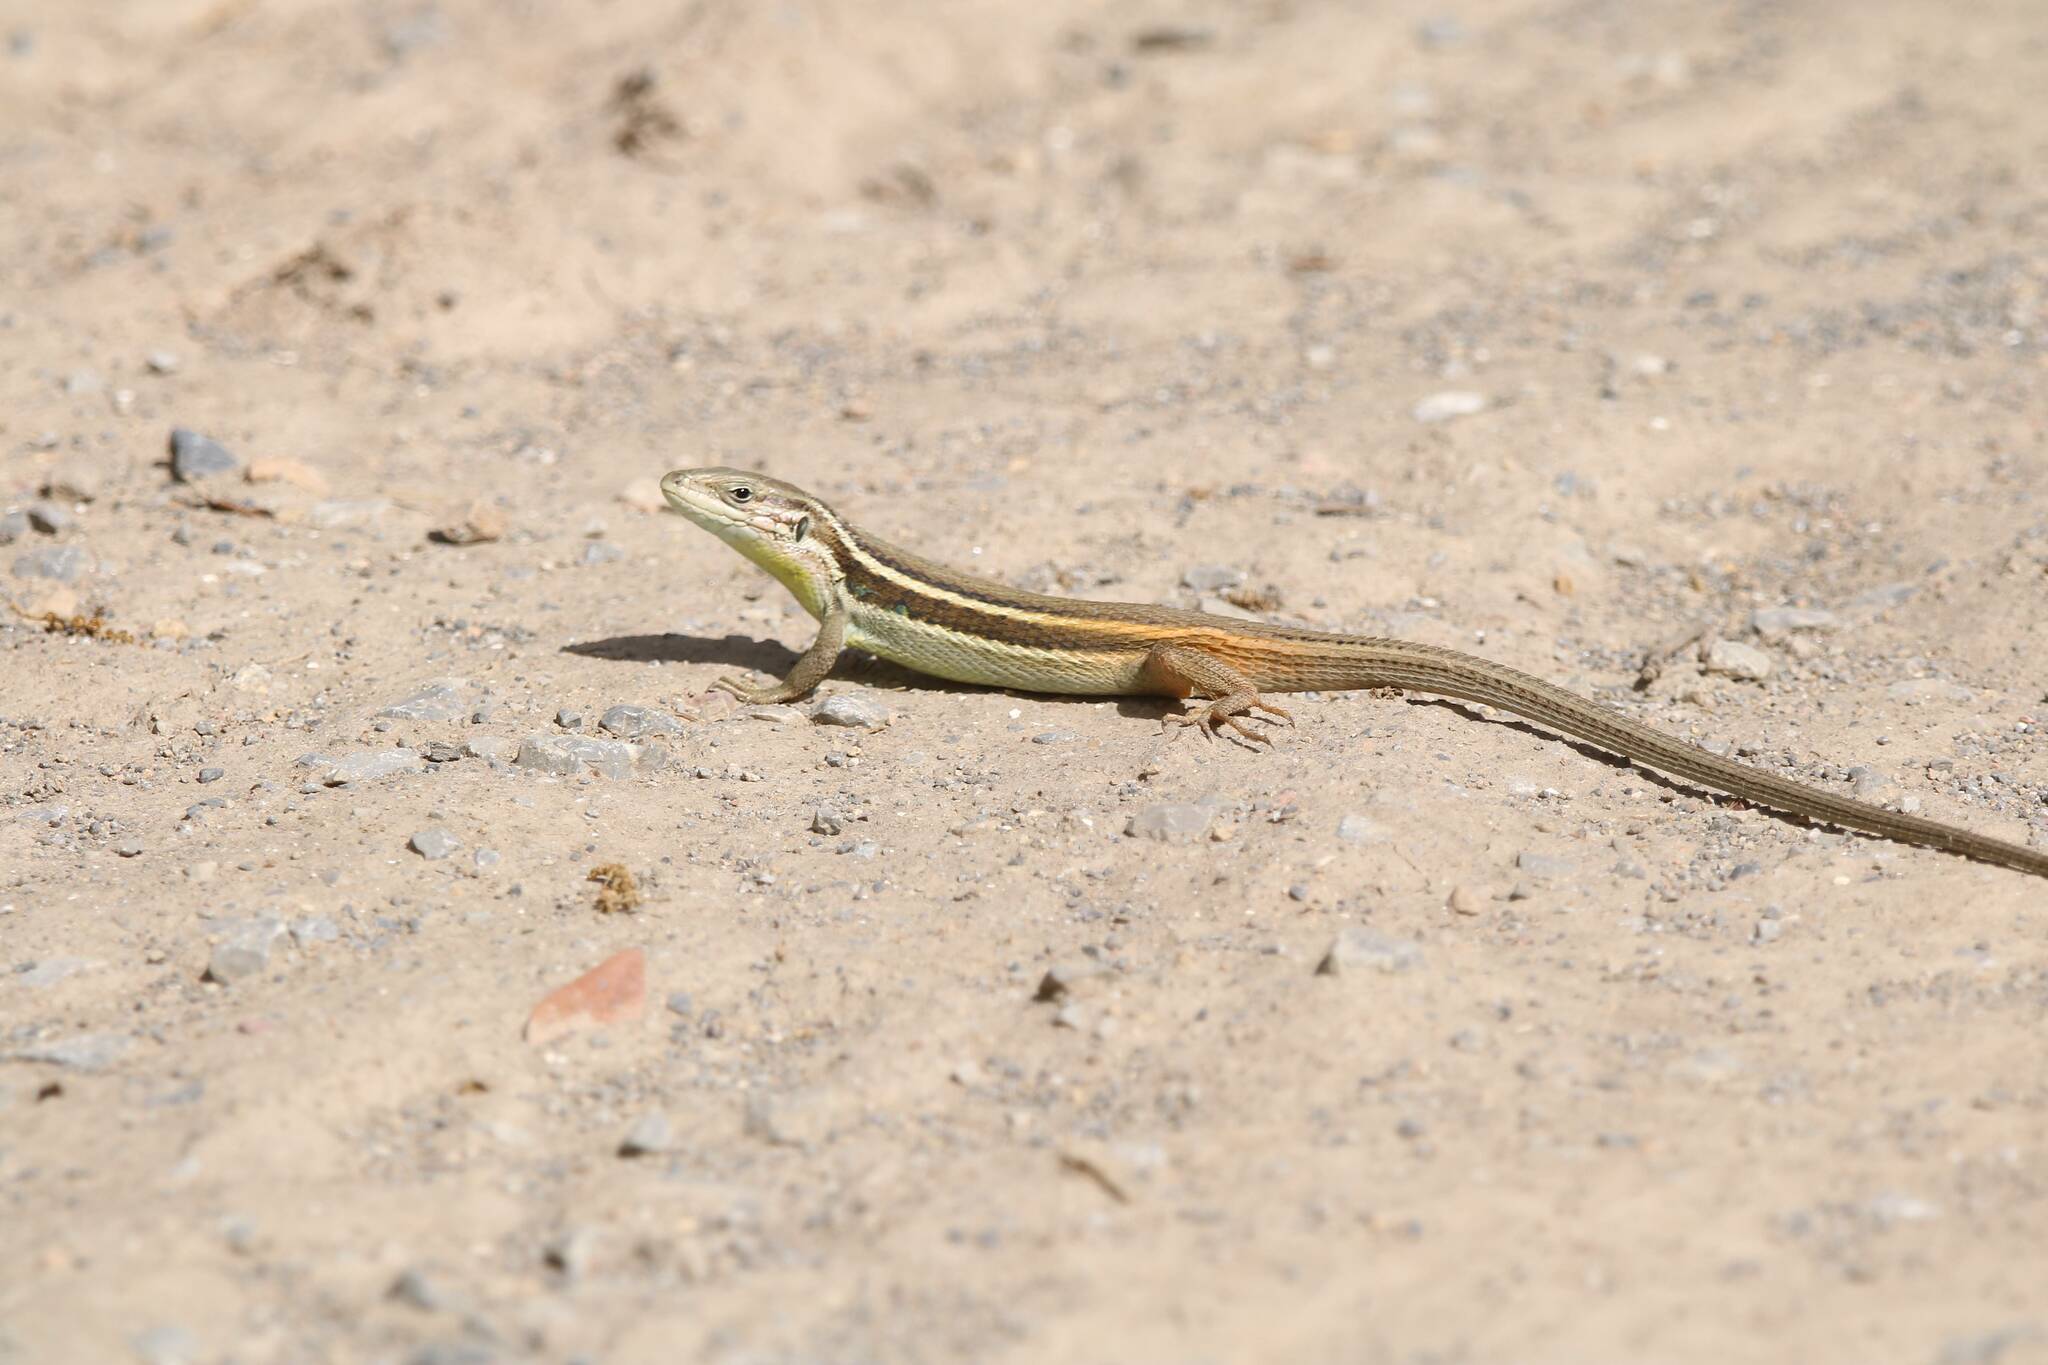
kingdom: Animalia
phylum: Chordata
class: Squamata
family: Lacertidae
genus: Psammodromus
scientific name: Psammodromus algirus
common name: Algerian psammodromus
